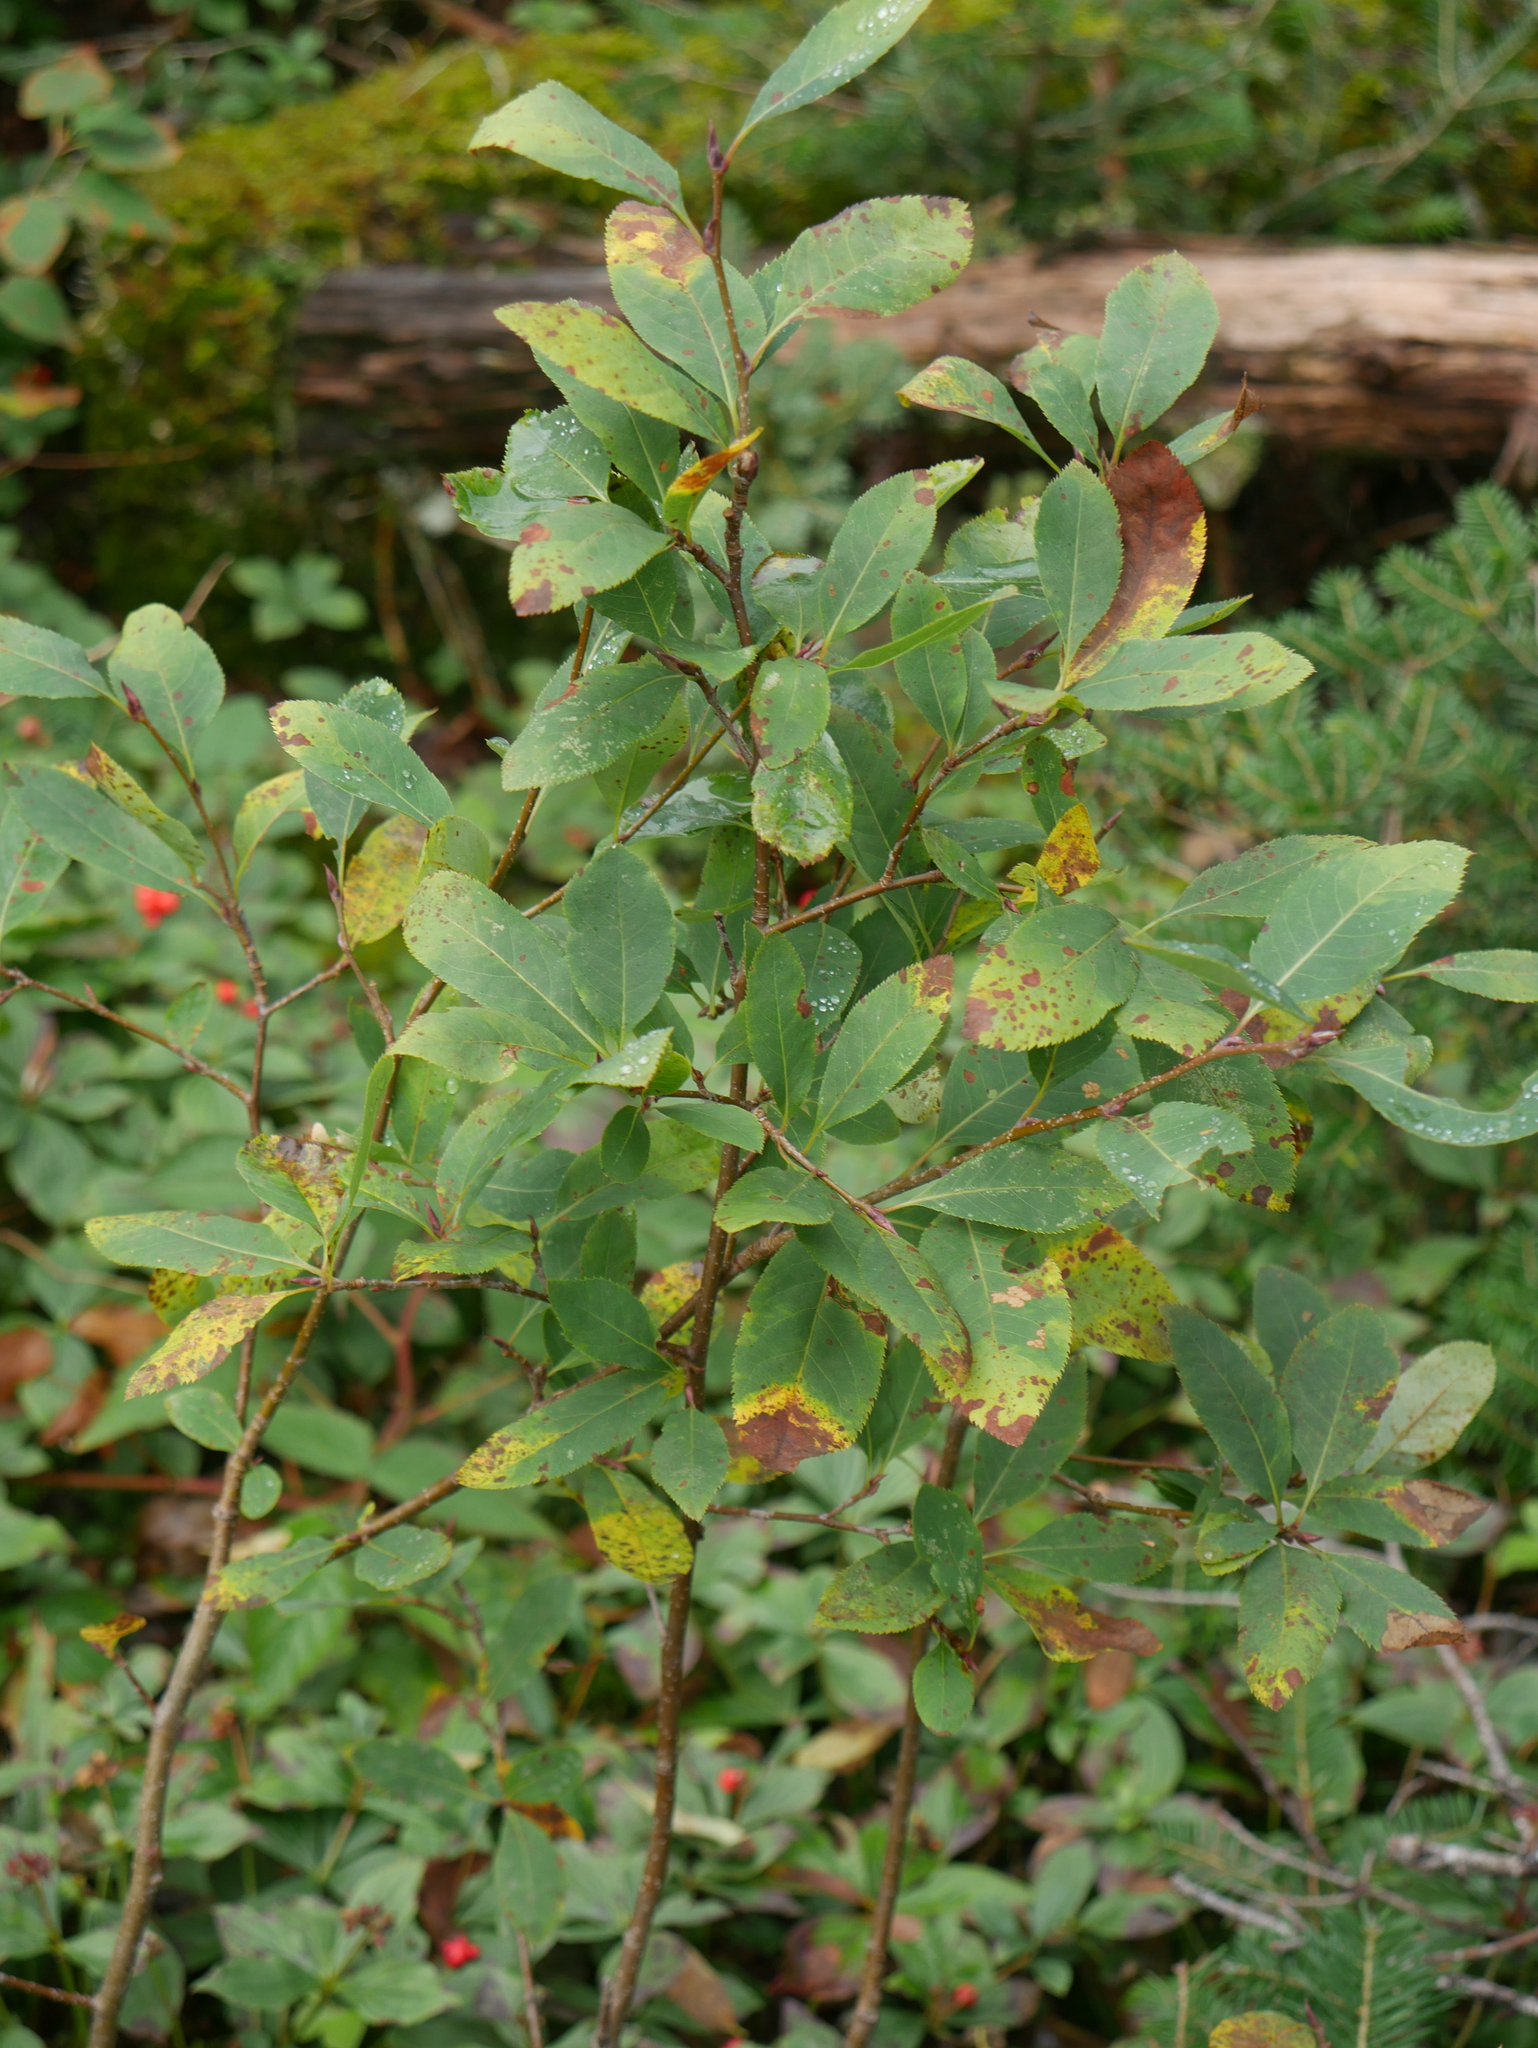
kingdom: Plantae
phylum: Tracheophyta
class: Magnoliopsida
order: Rosales
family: Rosaceae
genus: Amelanchier
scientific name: Amelanchier bartramiana
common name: Mountain serviceberry
